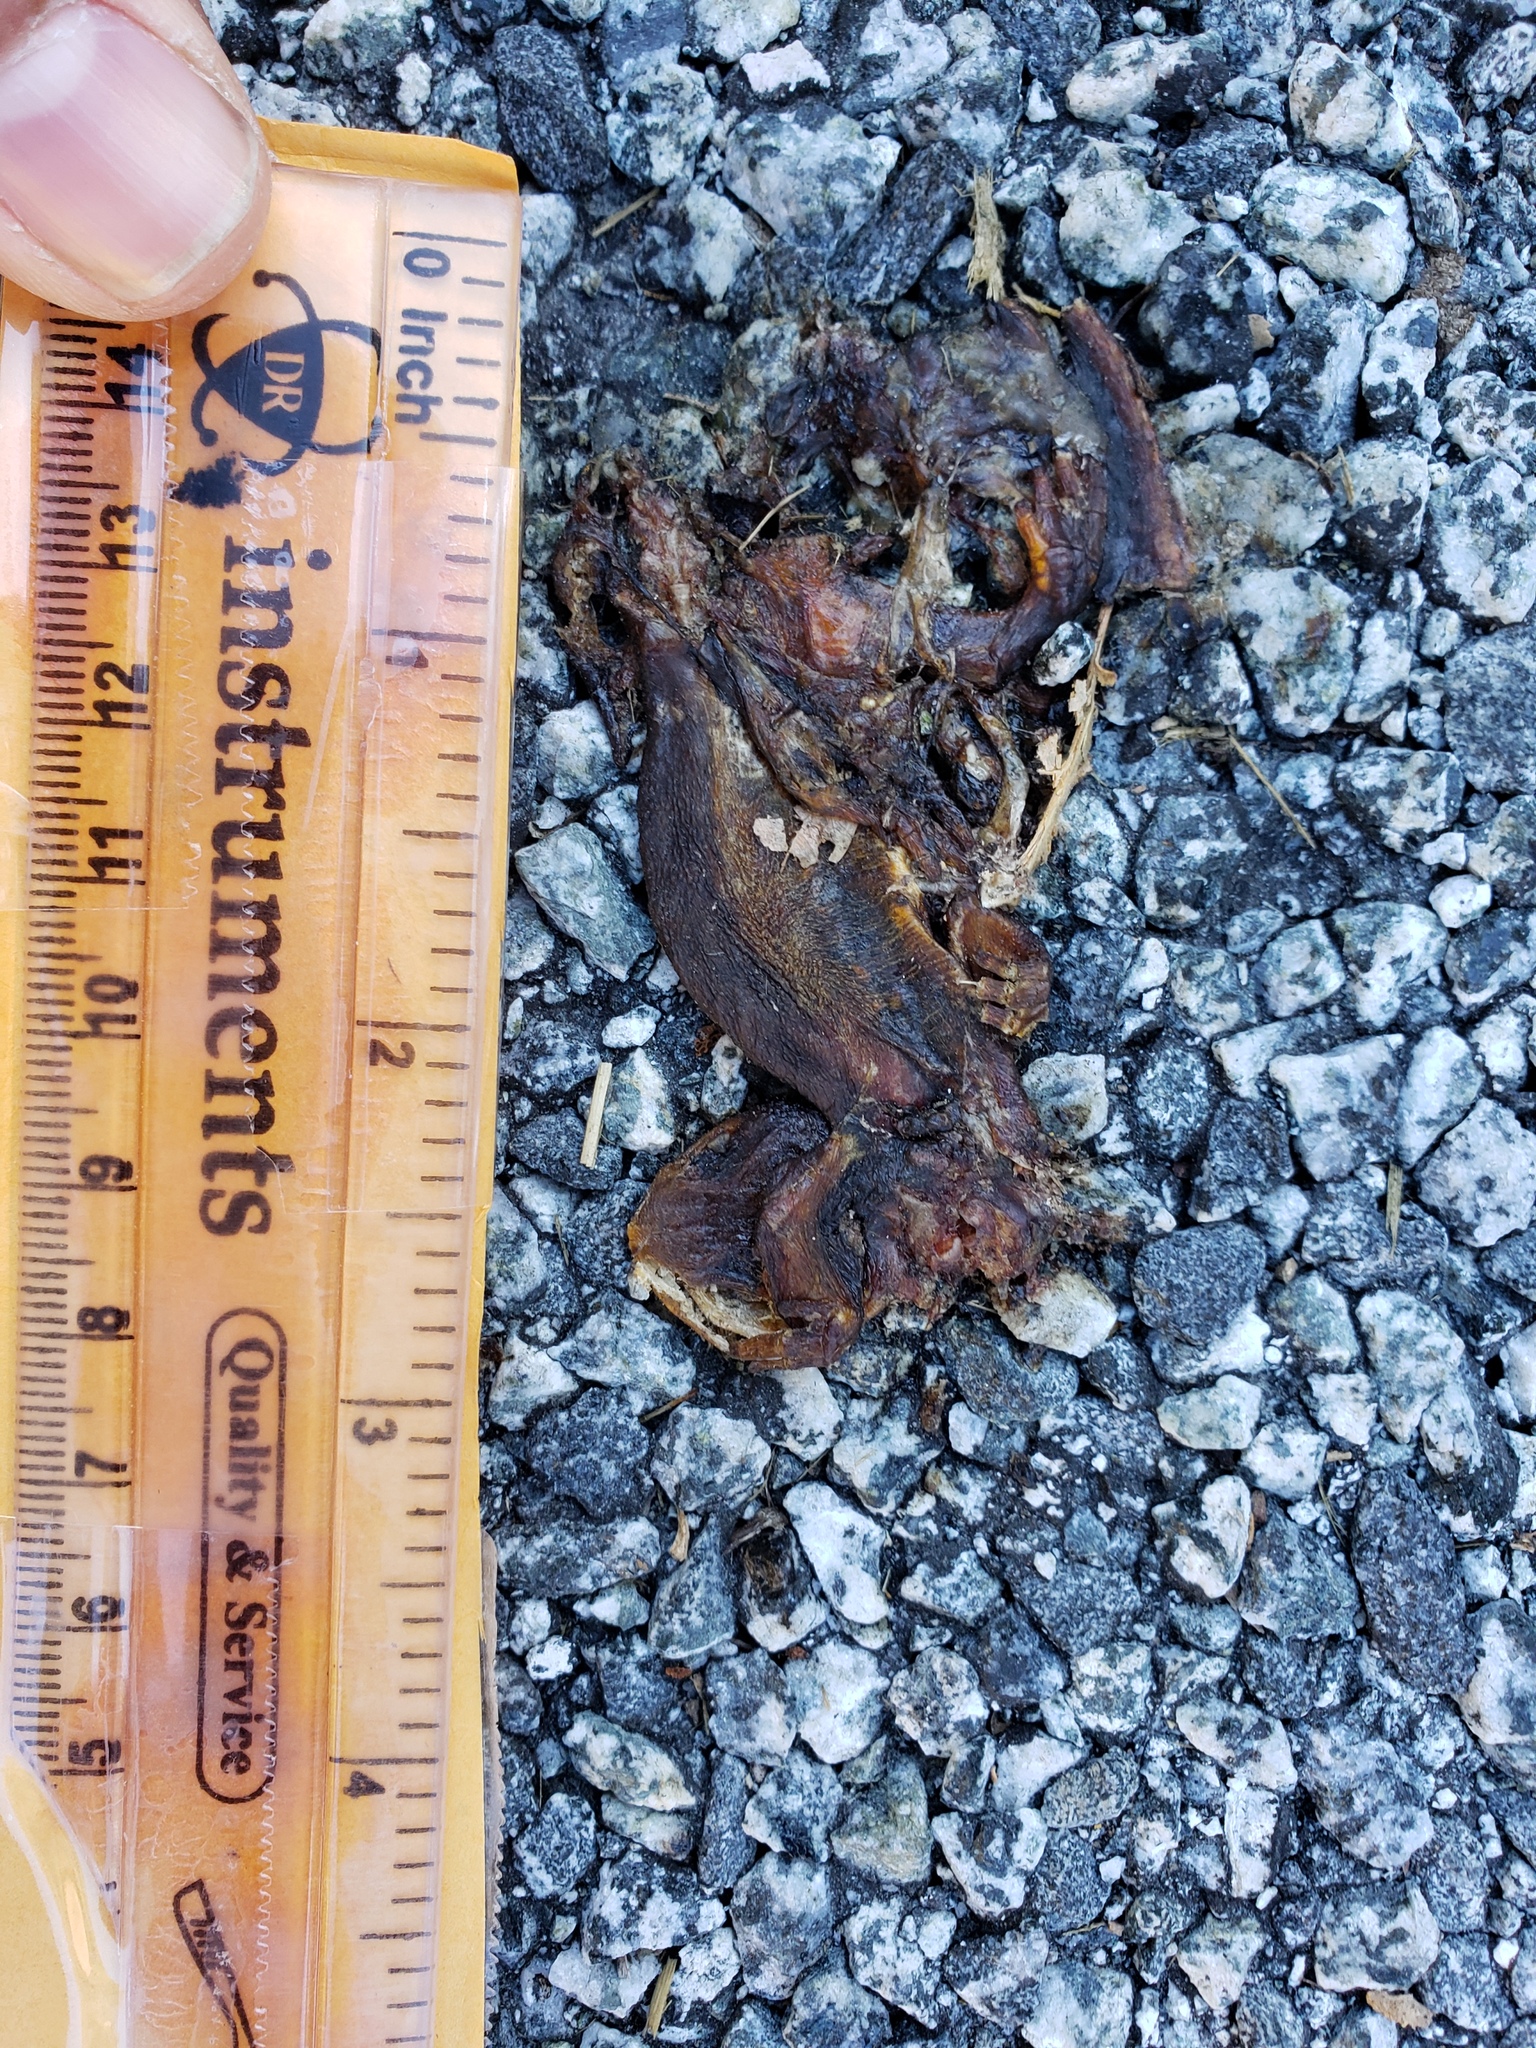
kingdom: Animalia
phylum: Chordata
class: Amphibia
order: Caudata
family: Salamandridae
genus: Taricha
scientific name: Taricha
